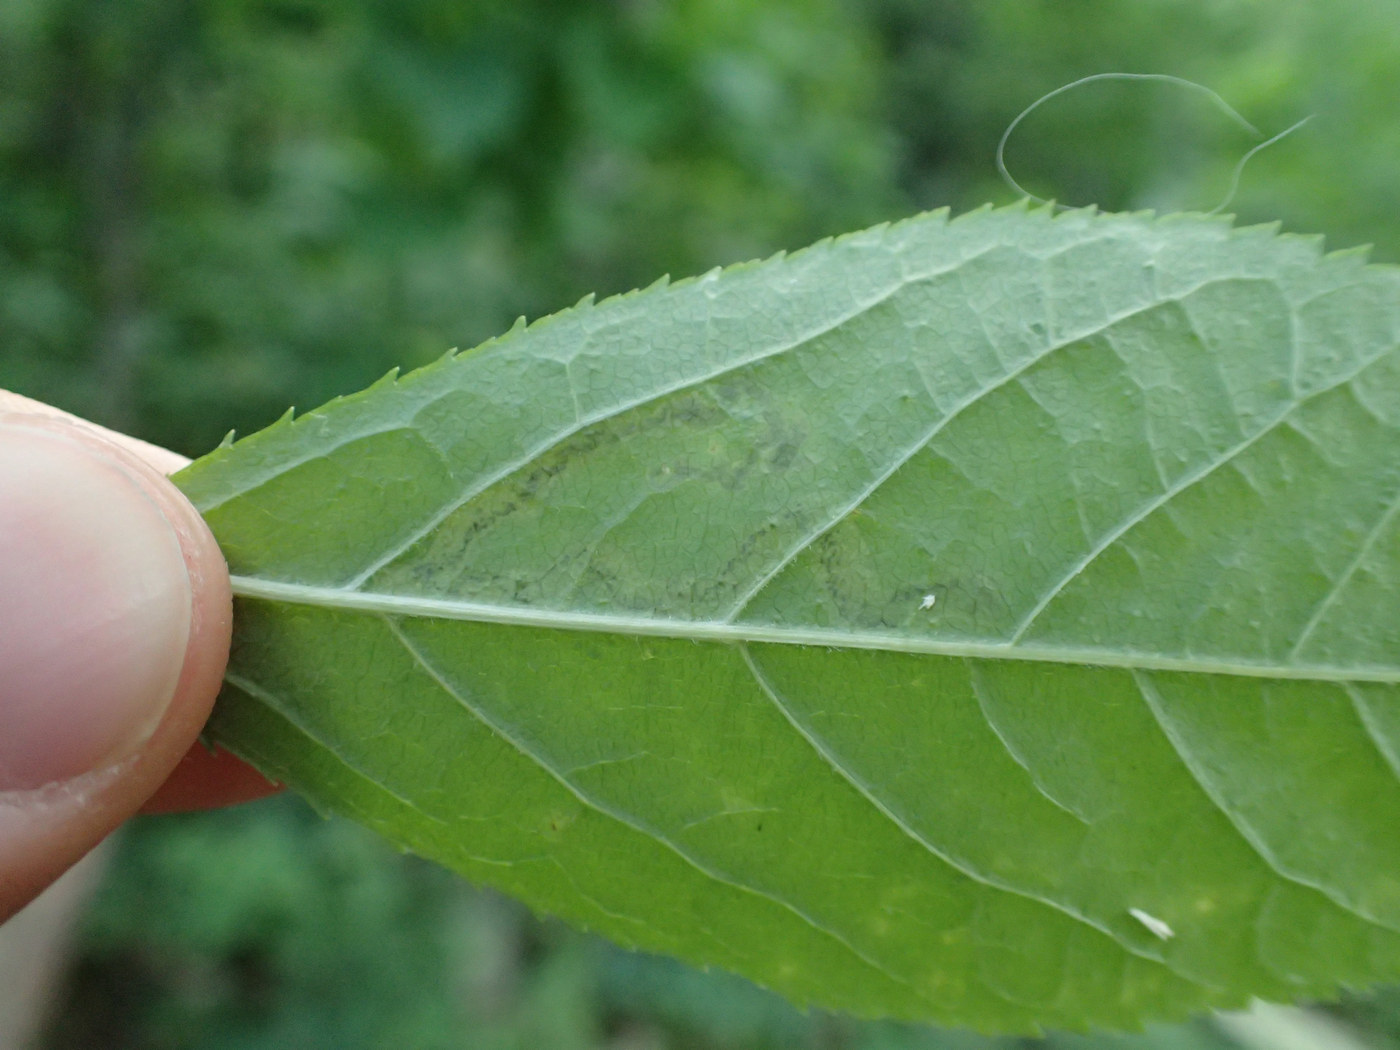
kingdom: Animalia
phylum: Arthropoda
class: Insecta
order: Diptera
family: Agromyzidae
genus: Phytomyza
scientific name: Phytomyza aralivora
